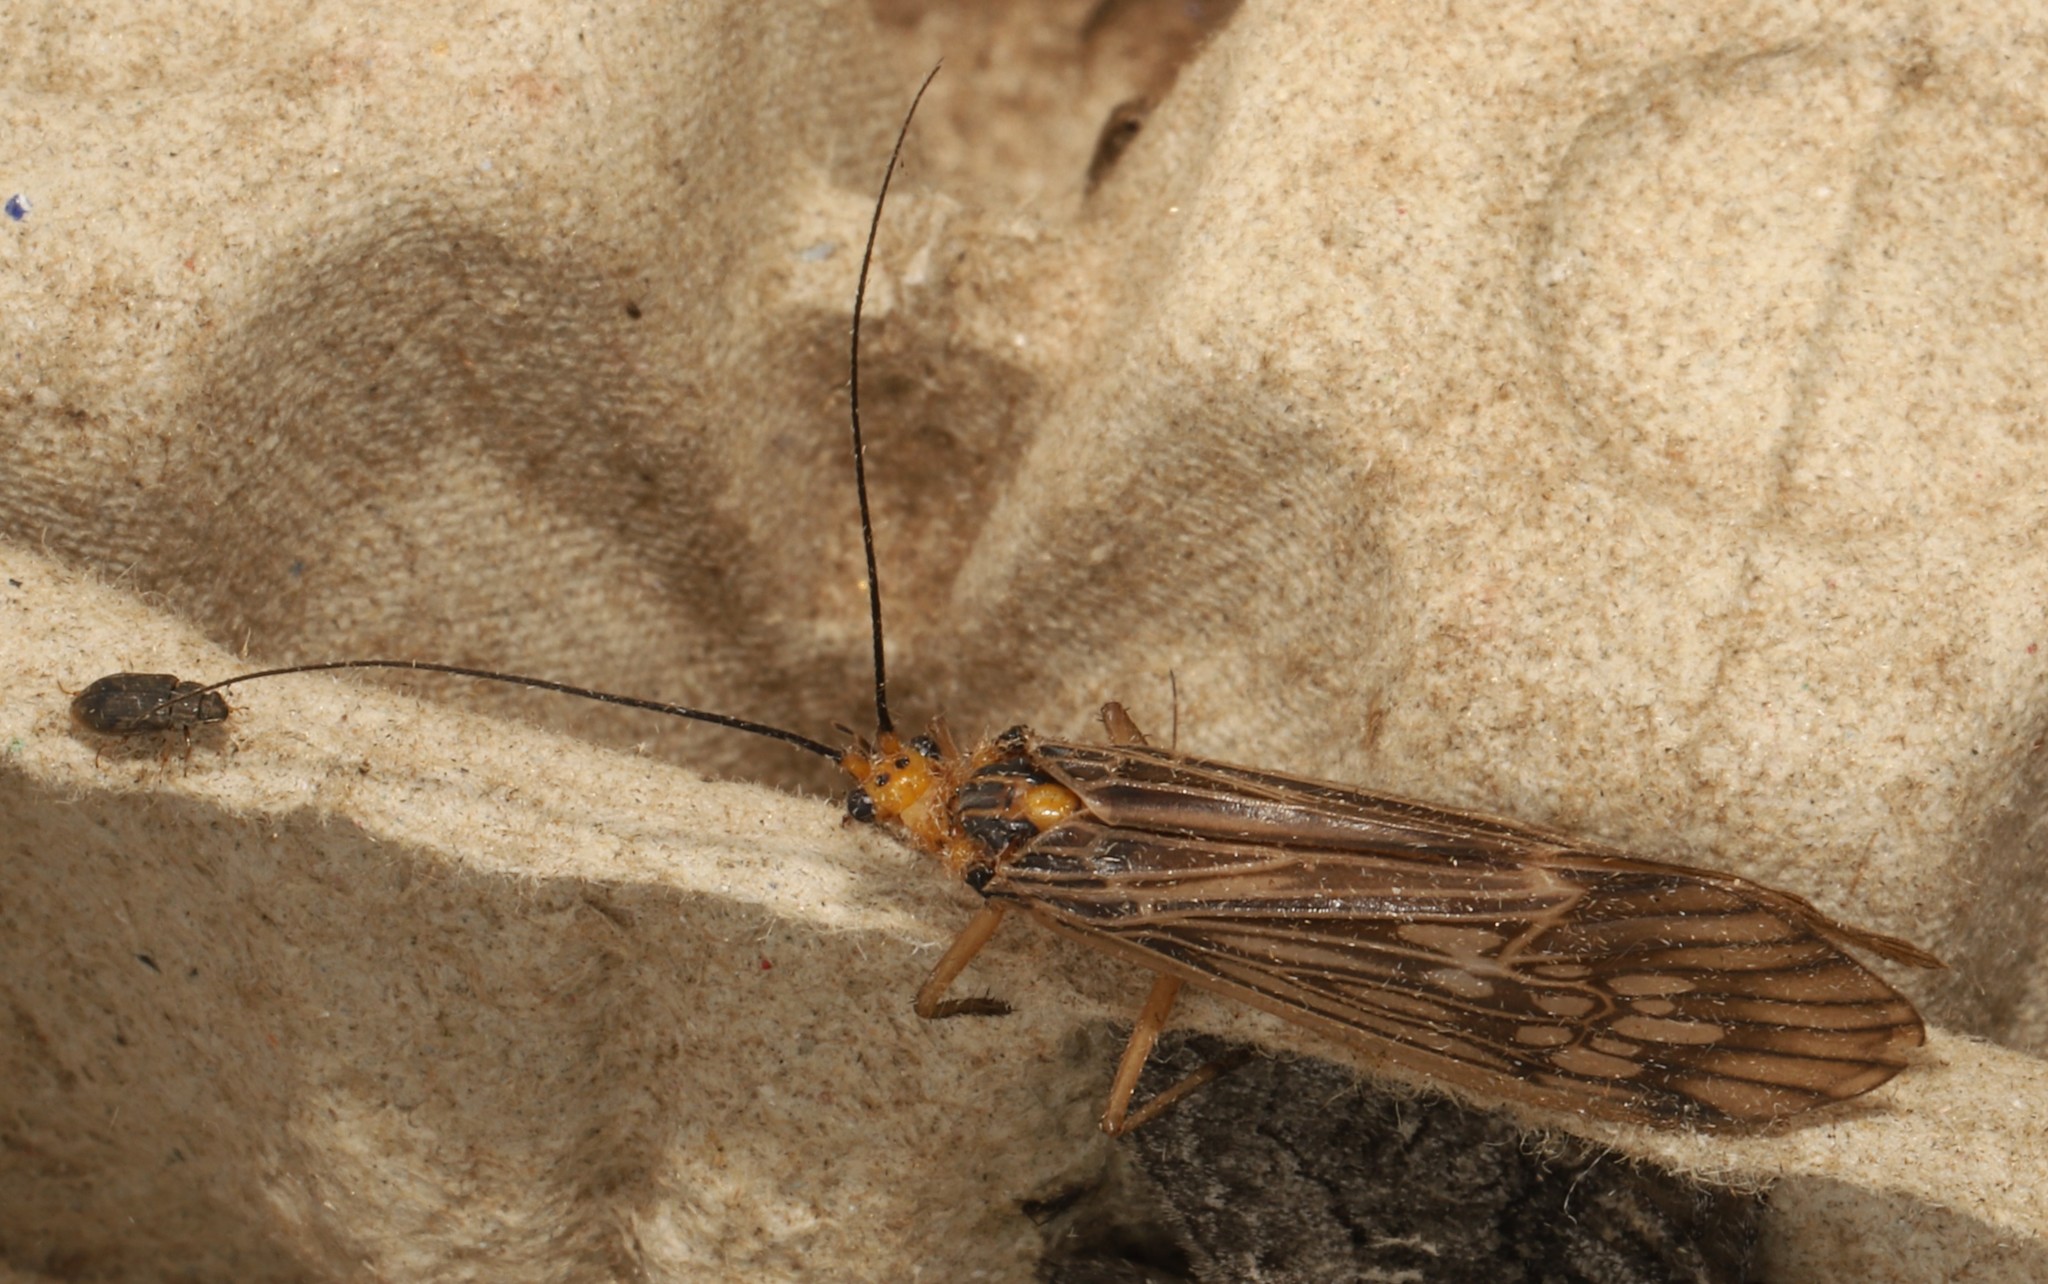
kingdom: Animalia
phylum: Arthropoda
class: Insecta
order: Trichoptera
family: Limnephilidae
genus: Hydatophylax
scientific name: Hydatophylax argus
